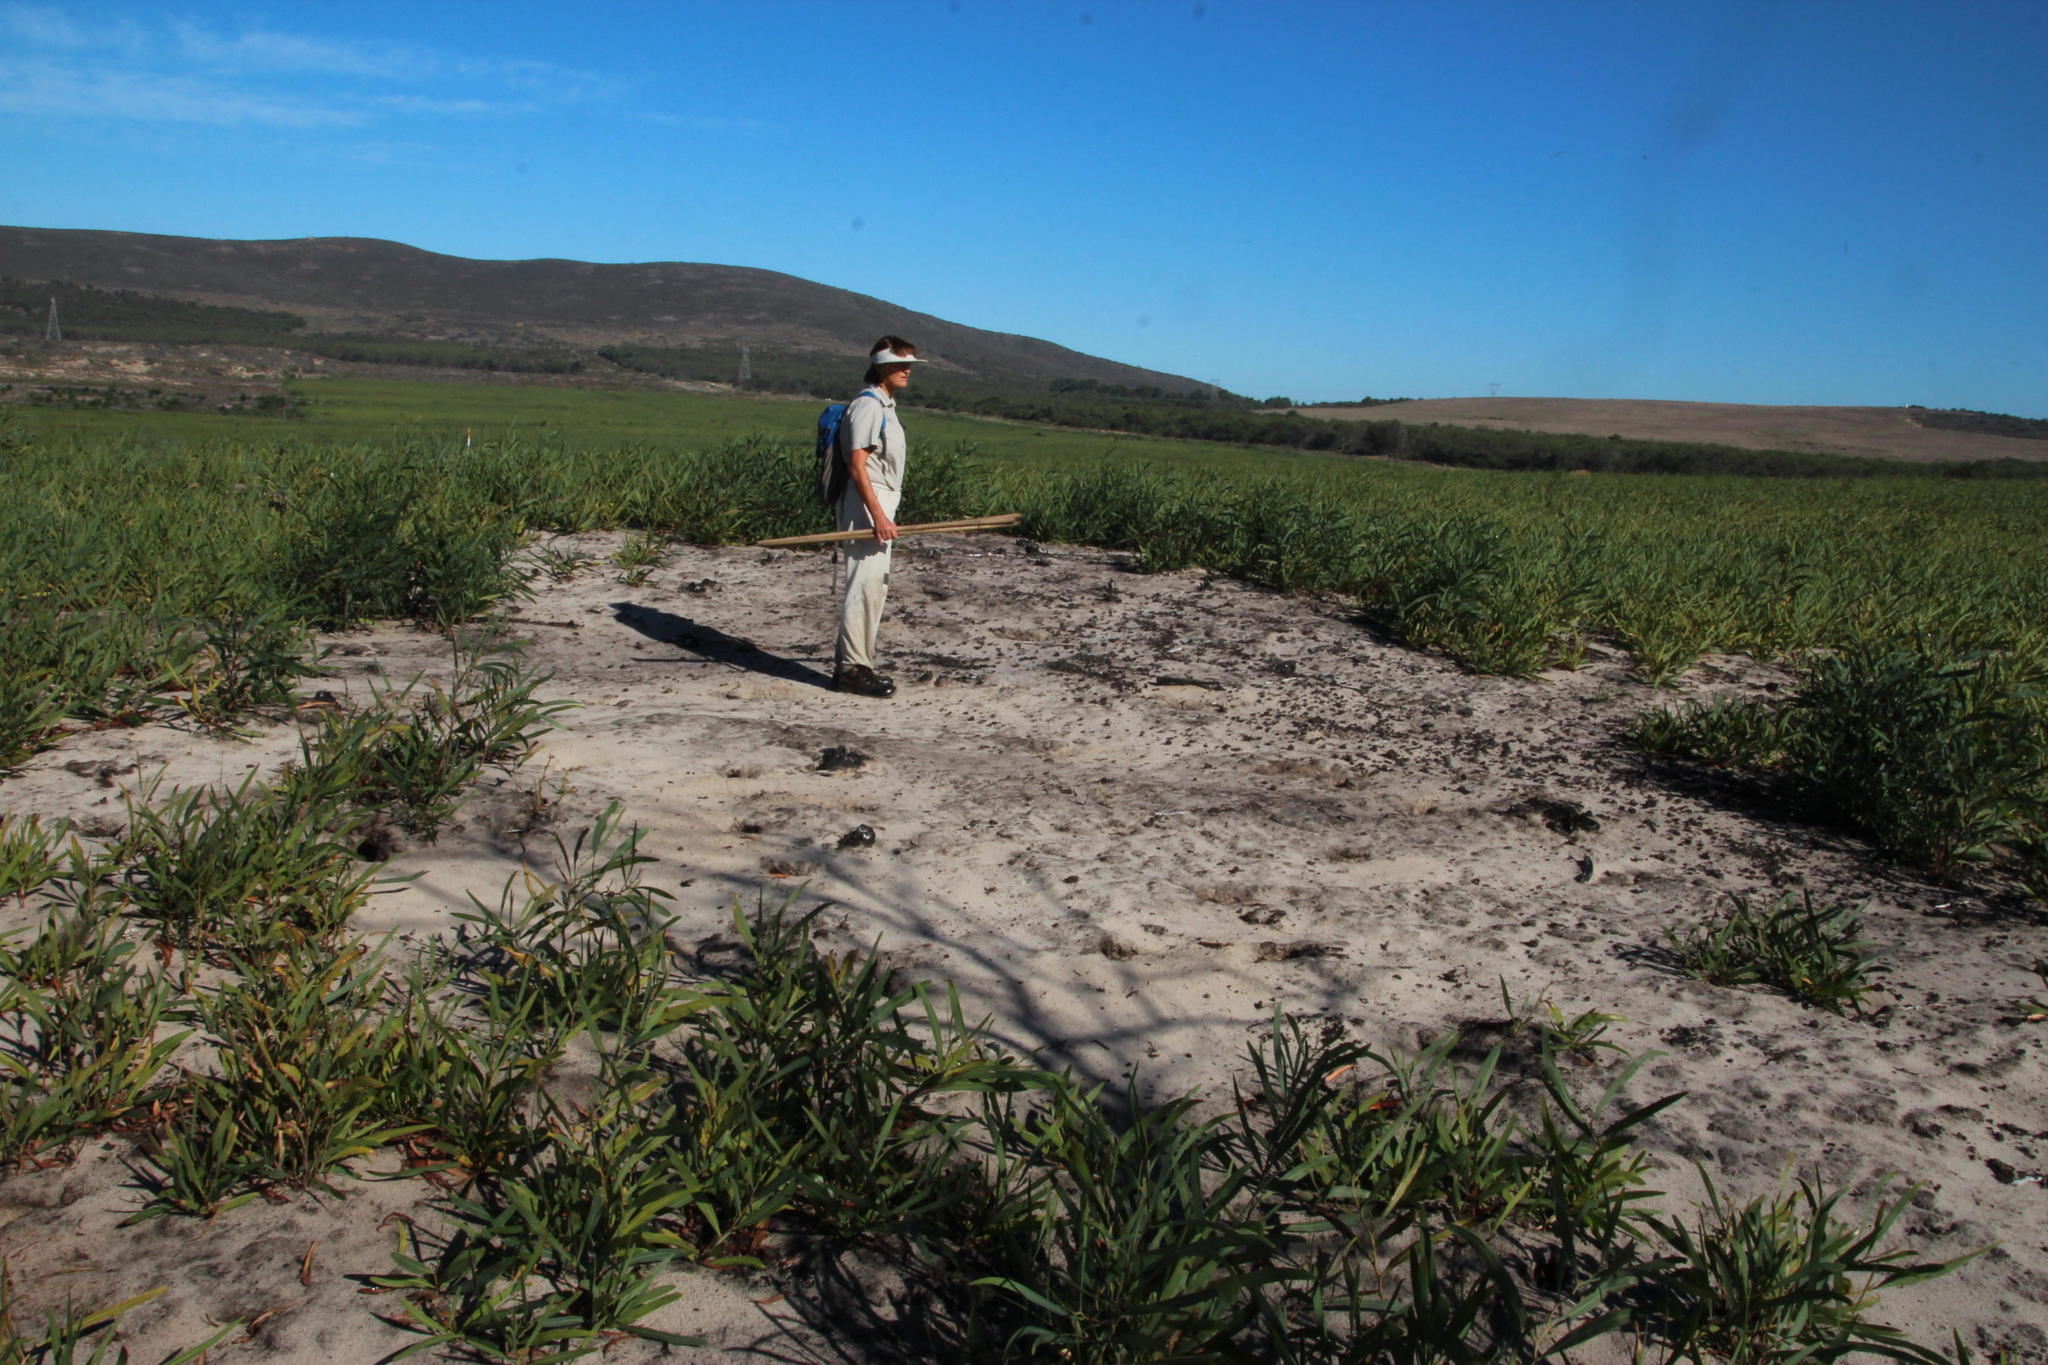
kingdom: Animalia
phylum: Chordata
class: Mammalia
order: Rodentia
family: Muridae
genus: Gerbilliscus
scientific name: Gerbilliscus afer
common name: Cape gerbil
